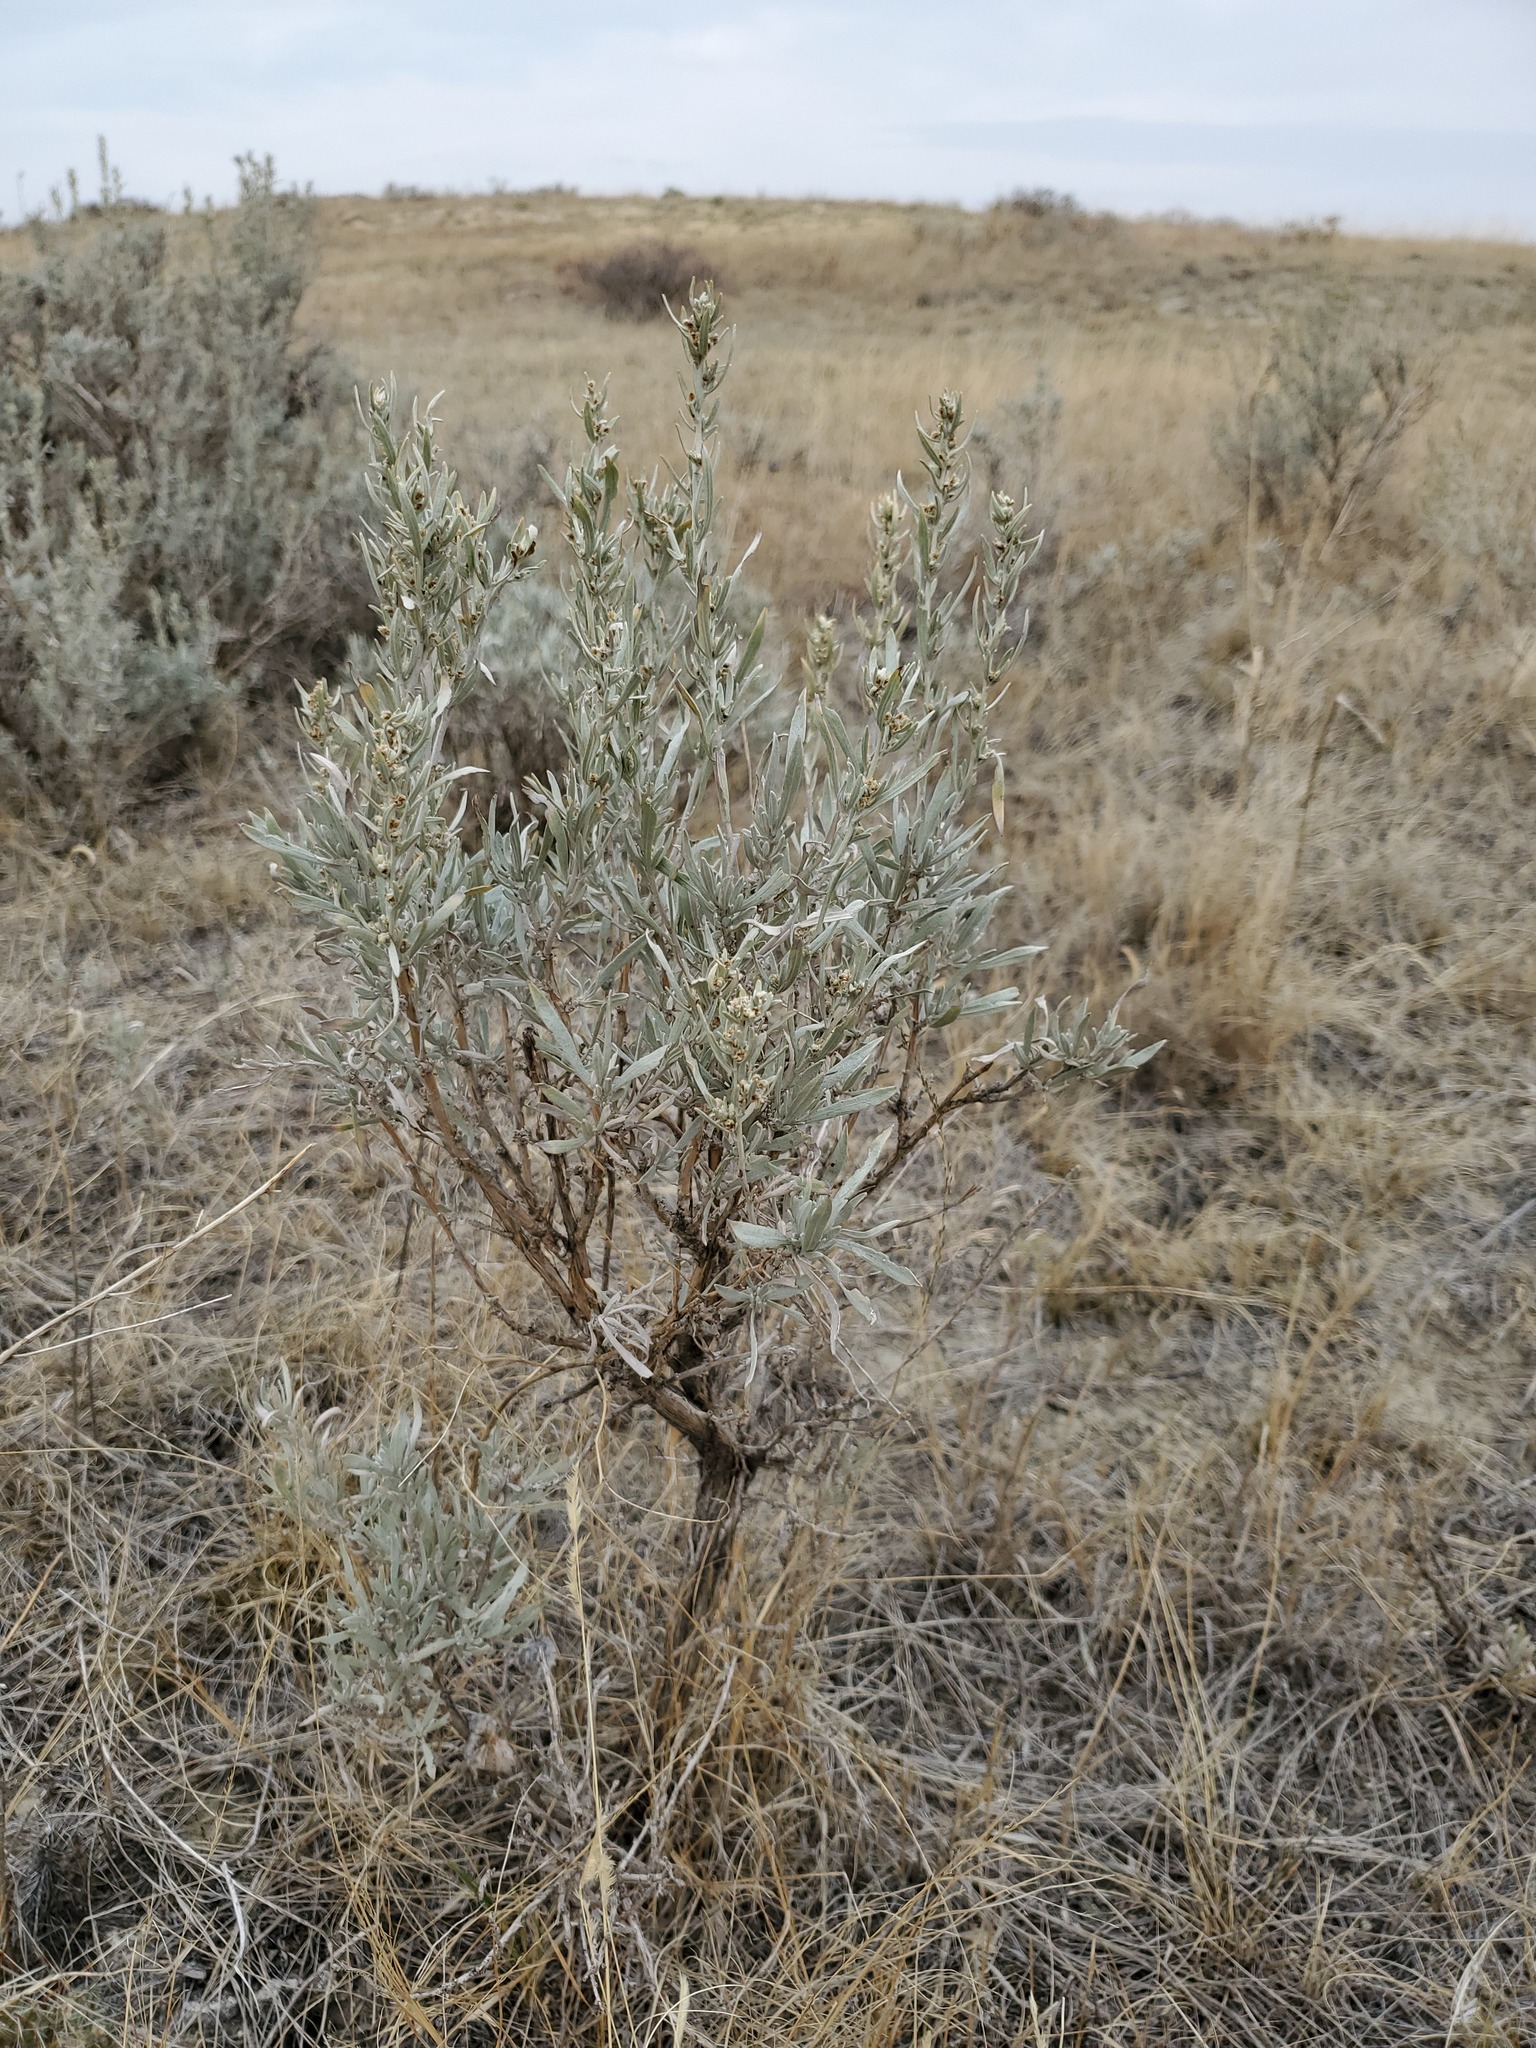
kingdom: Plantae
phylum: Tracheophyta
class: Magnoliopsida
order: Asterales
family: Asteraceae
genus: Artemisia
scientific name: Artemisia cana
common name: Silver sagebrush
